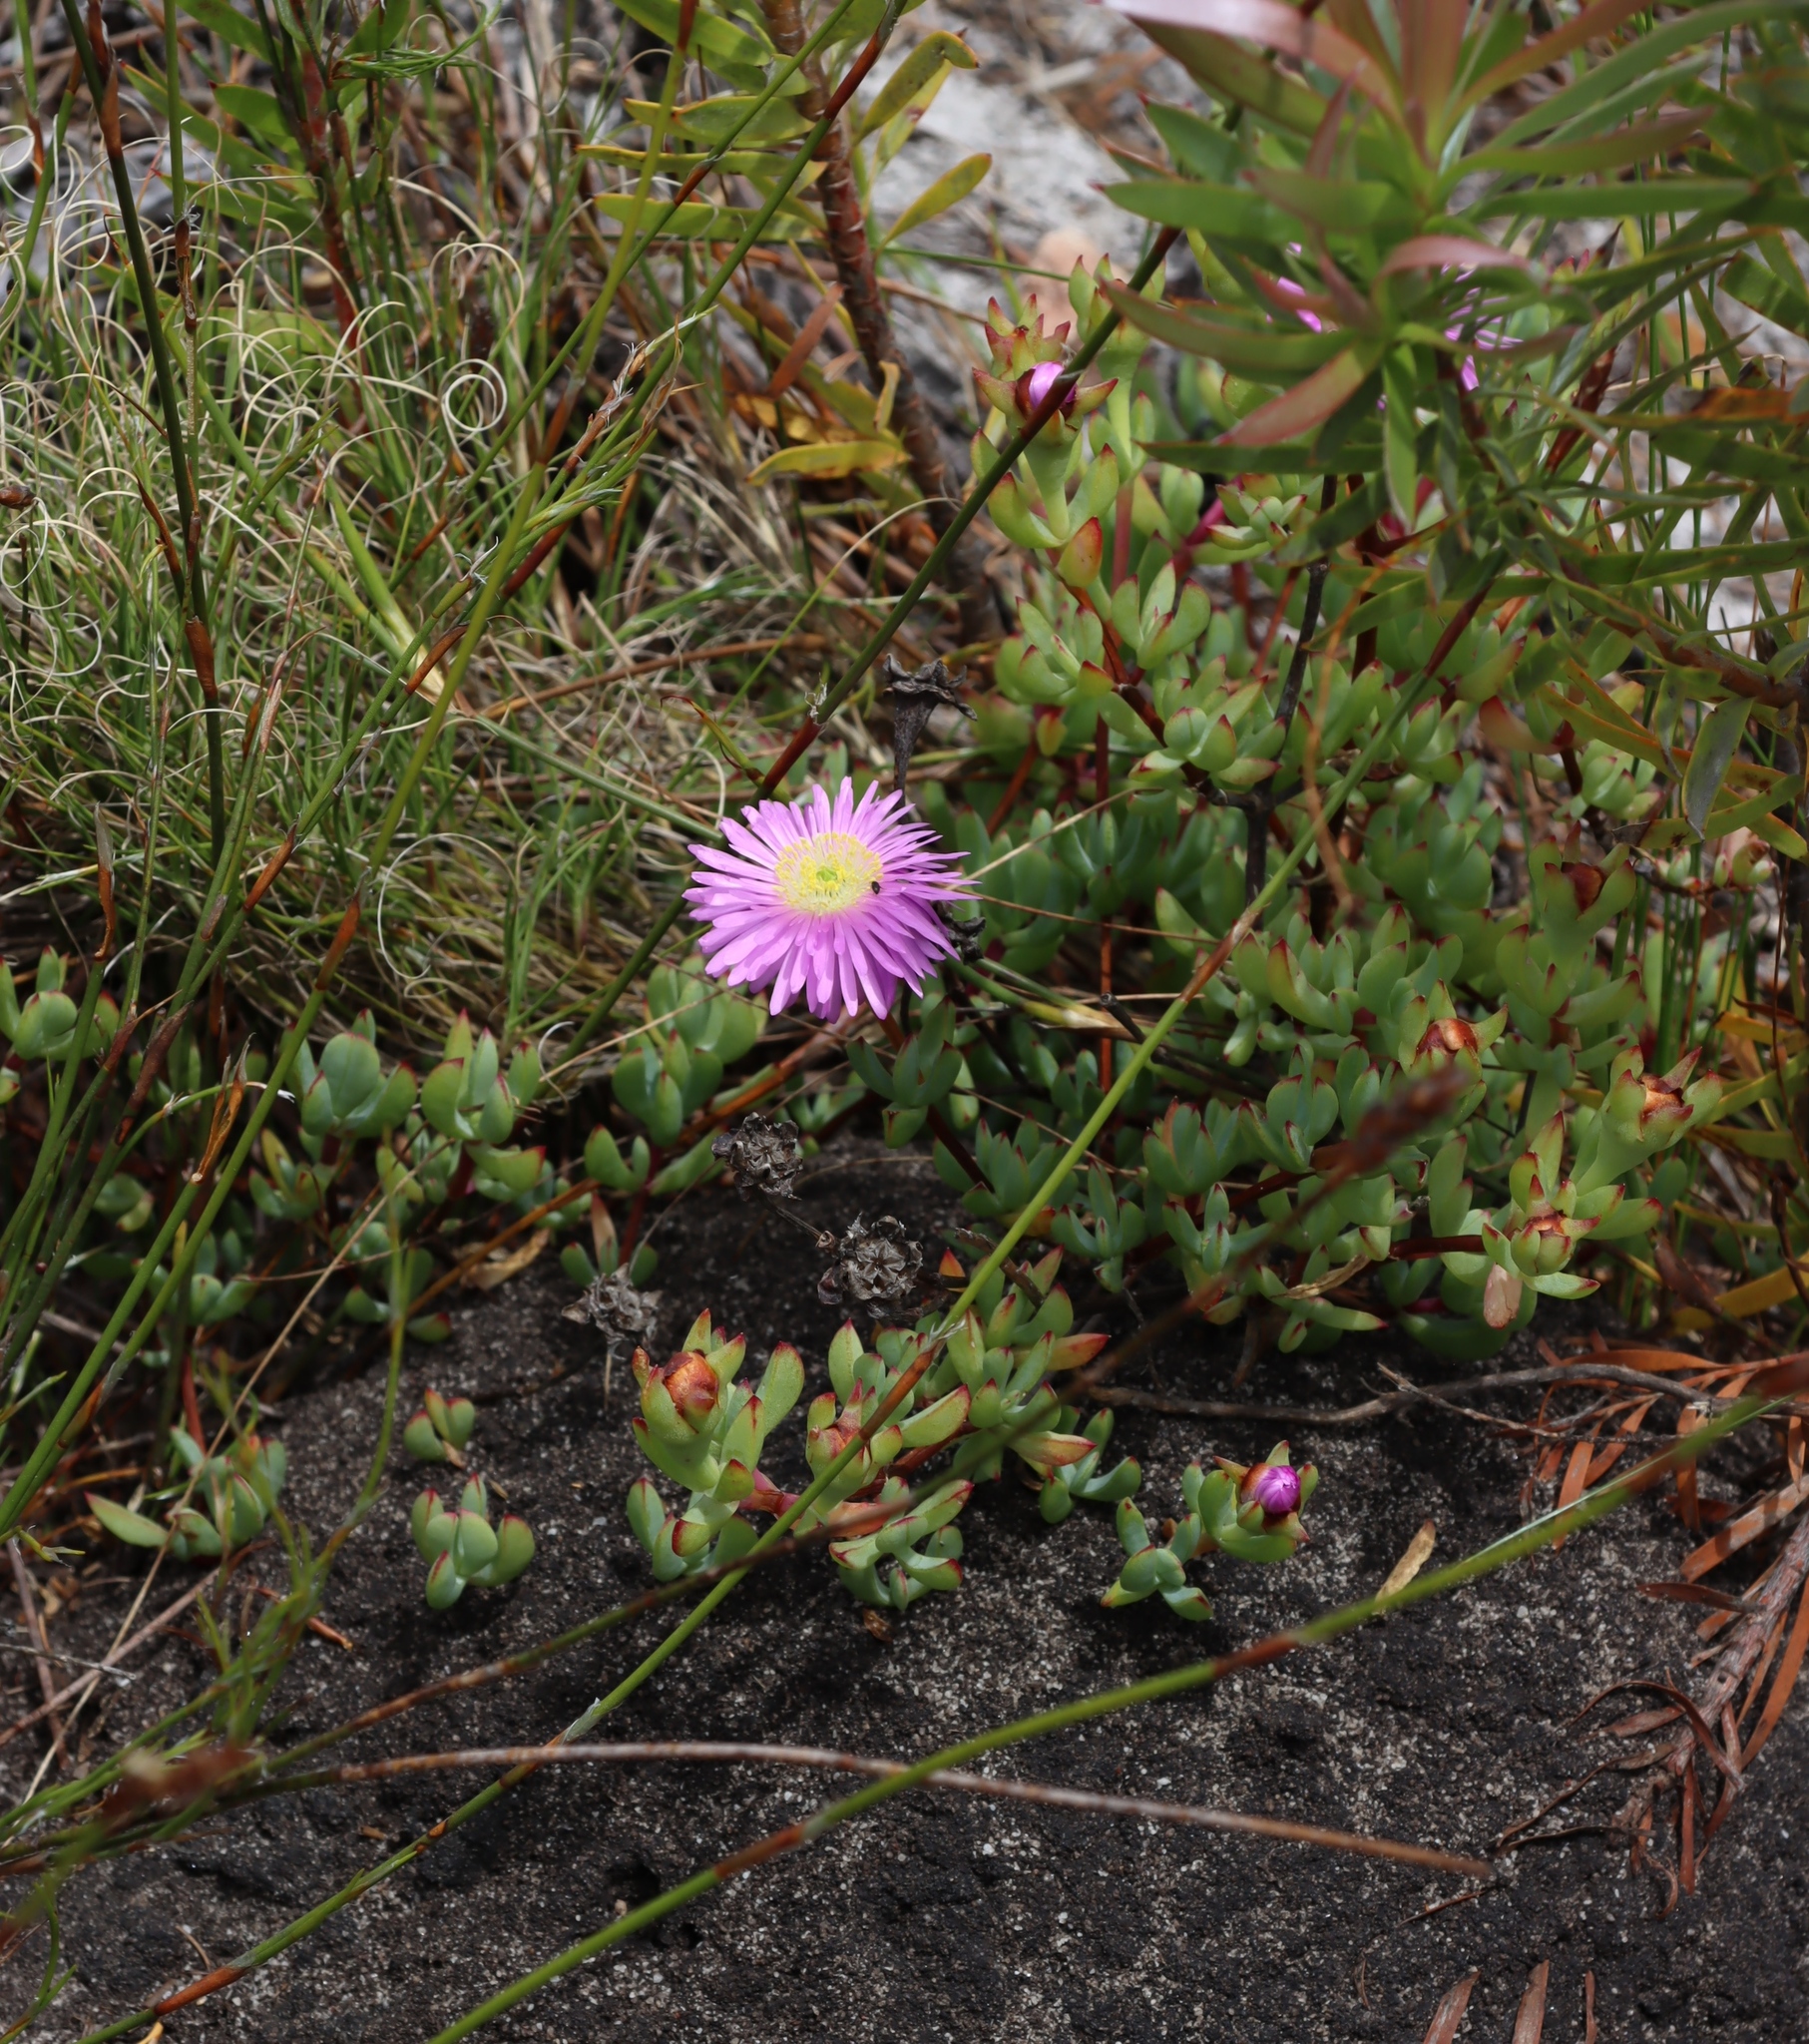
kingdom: Plantae
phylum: Tracheophyta
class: Magnoliopsida
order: Caryophyllales
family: Aizoaceae
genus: Oscularia
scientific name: Oscularia falciformis
